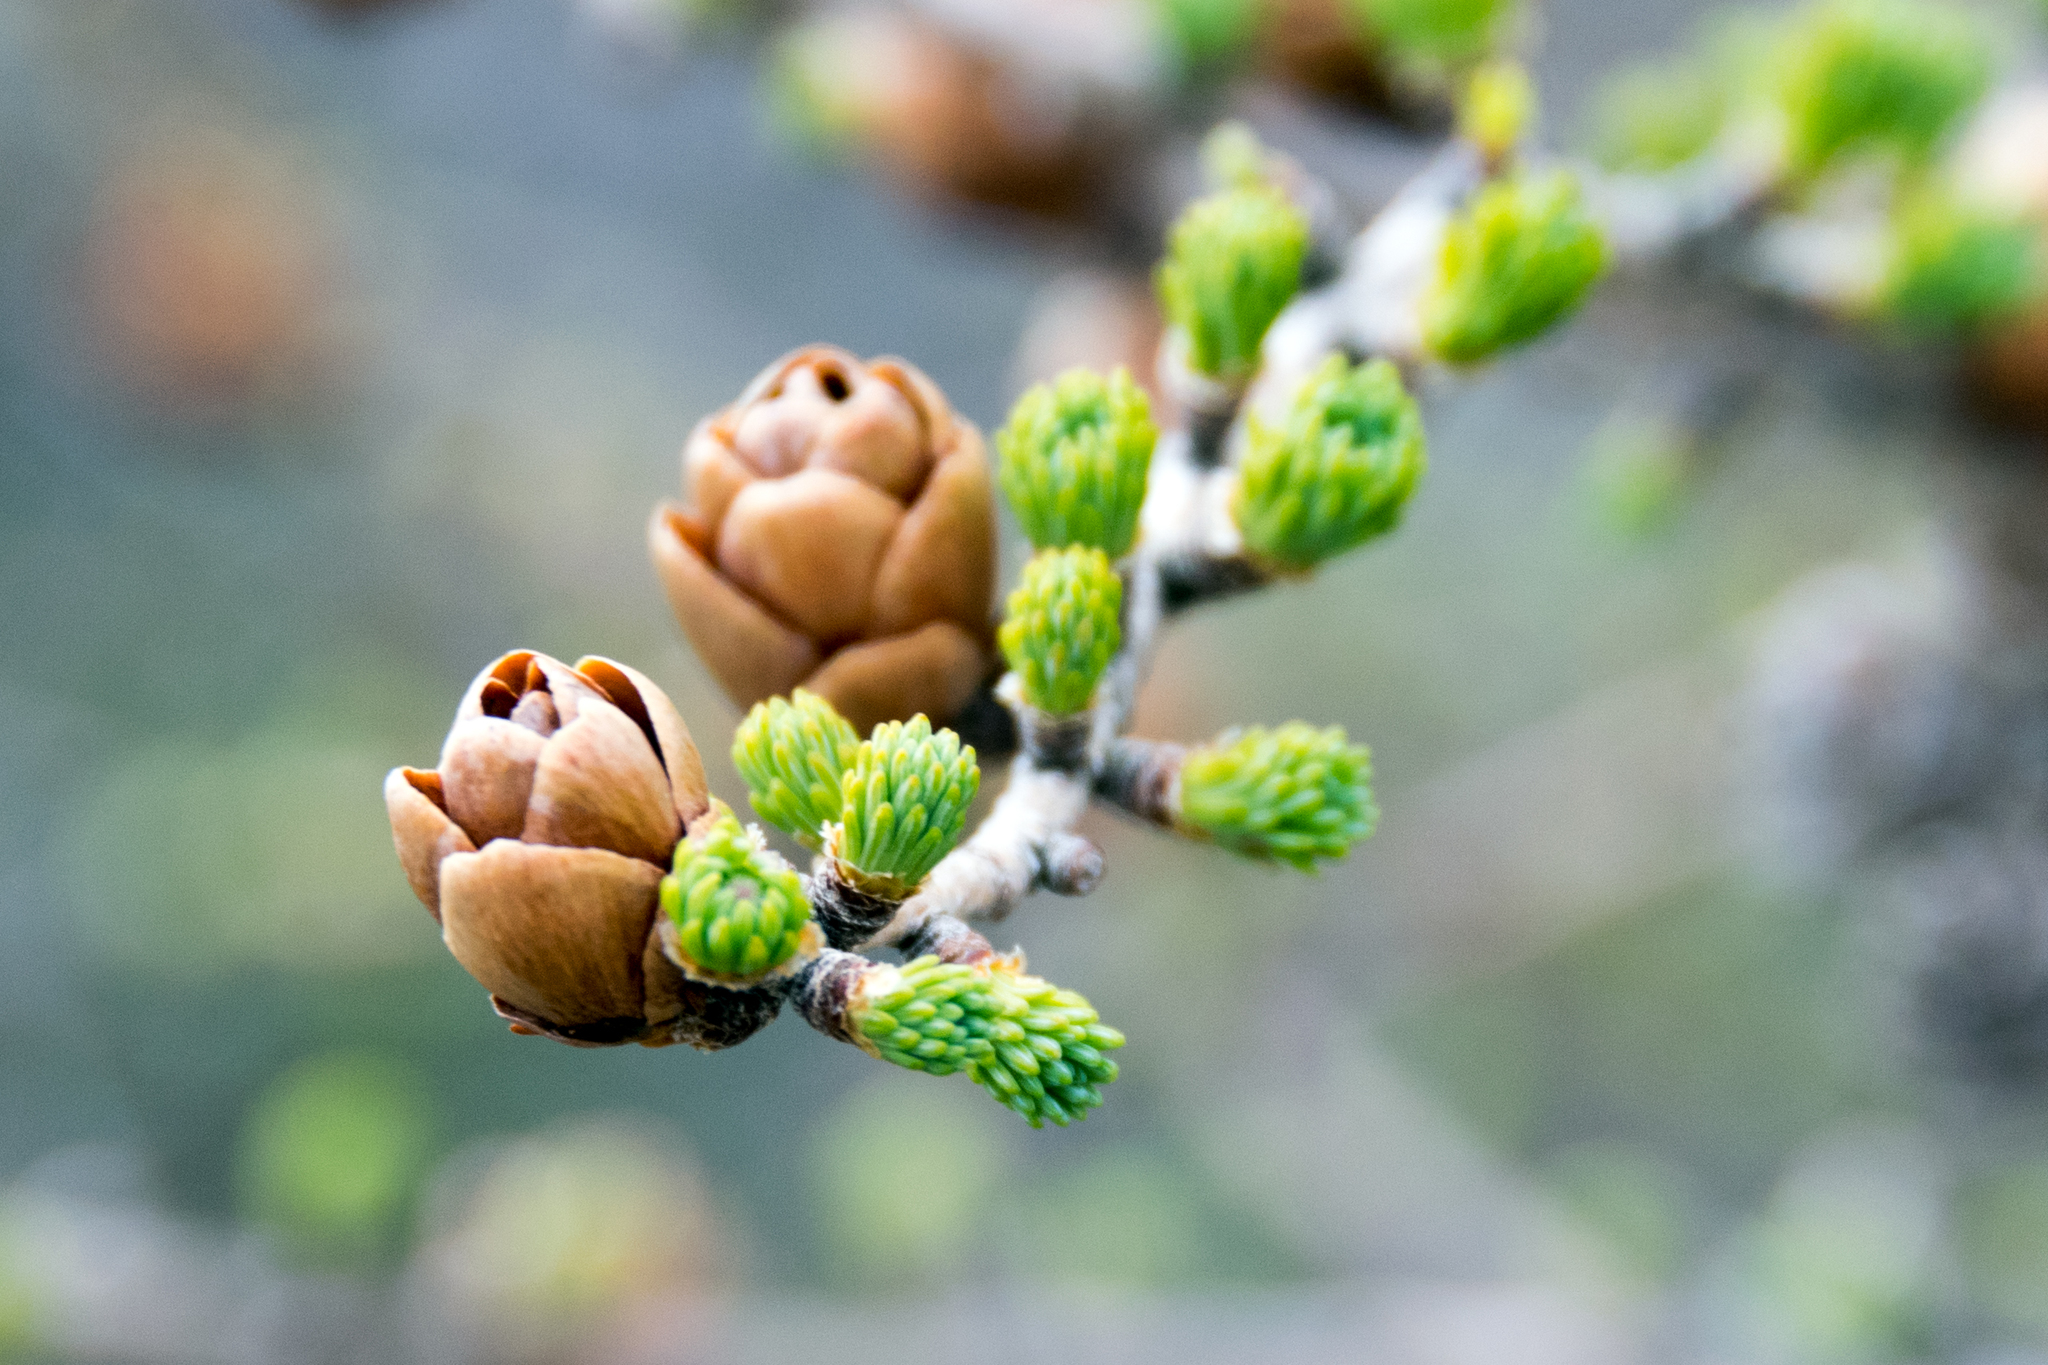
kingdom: Plantae
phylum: Tracheophyta
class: Pinopsida
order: Pinales
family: Pinaceae
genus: Larix
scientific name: Larix laricina
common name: American larch
